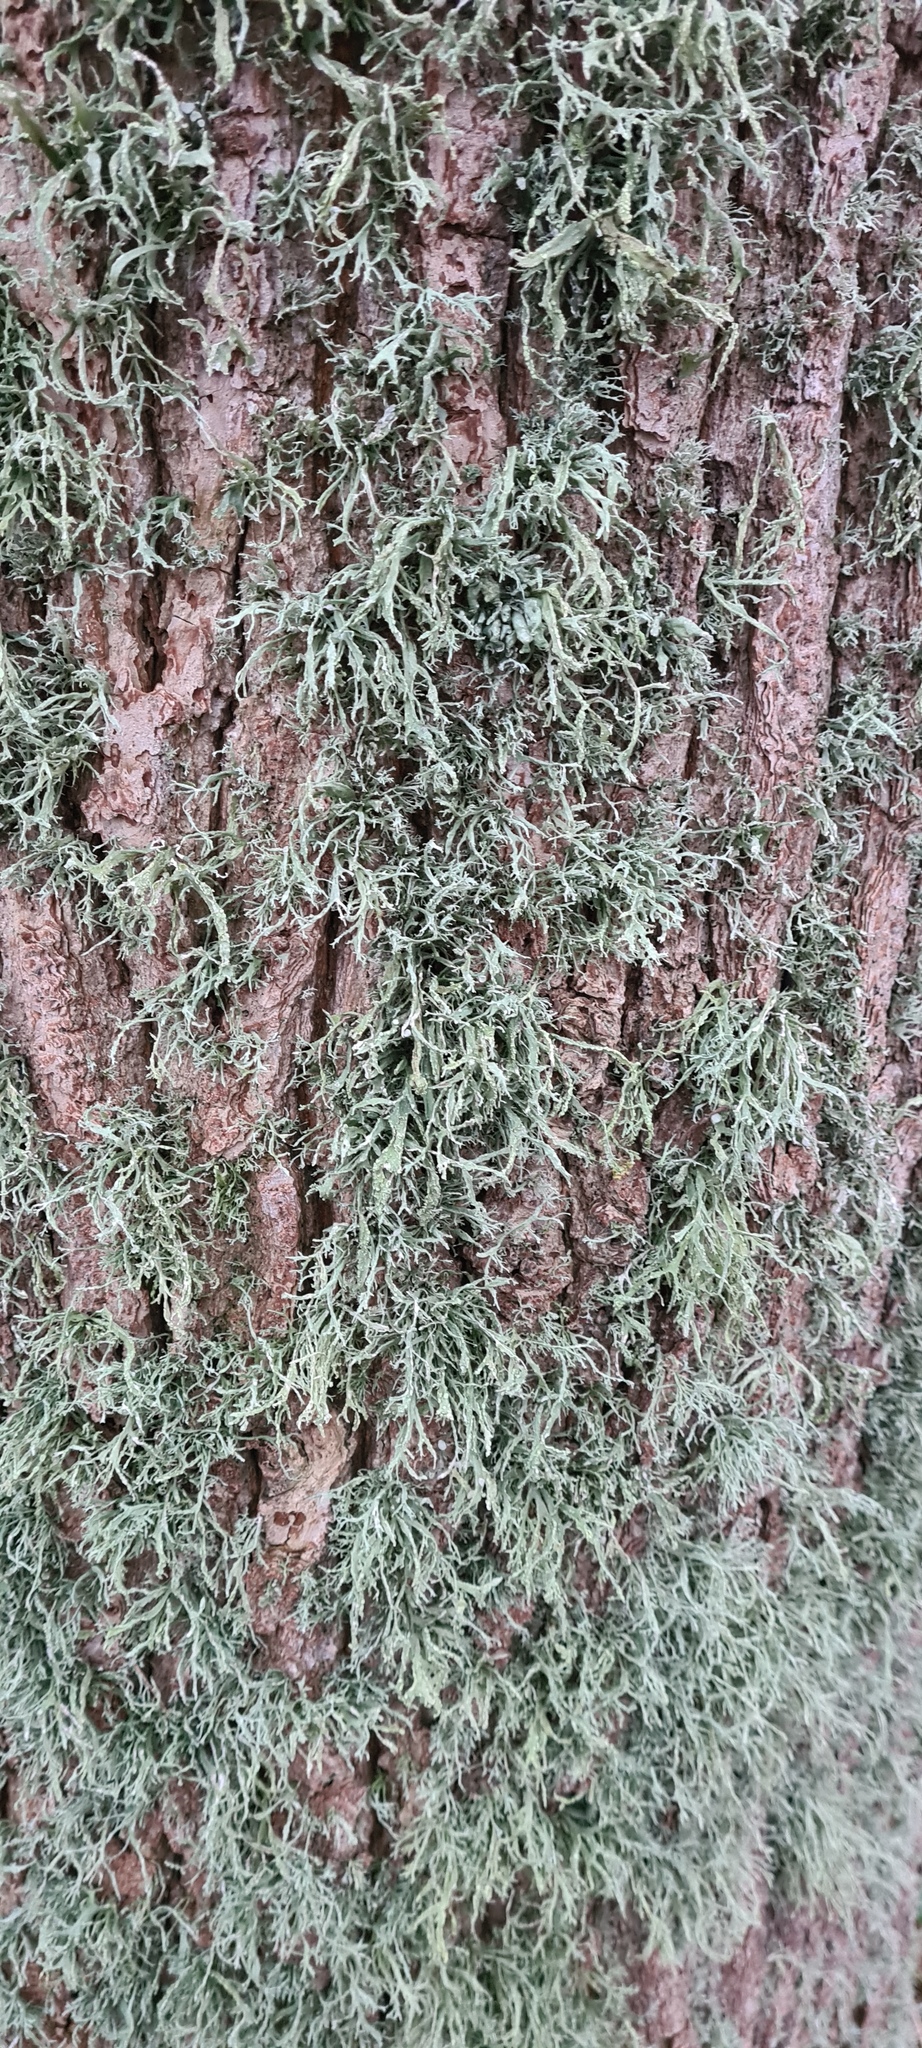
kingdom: Fungi
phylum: Ascomycota
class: Lecanoromycetes
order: Lecanorales
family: Ramalinaceae
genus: Ramalina
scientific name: Ramalina farinacea
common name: Farinose cartilage lichen
